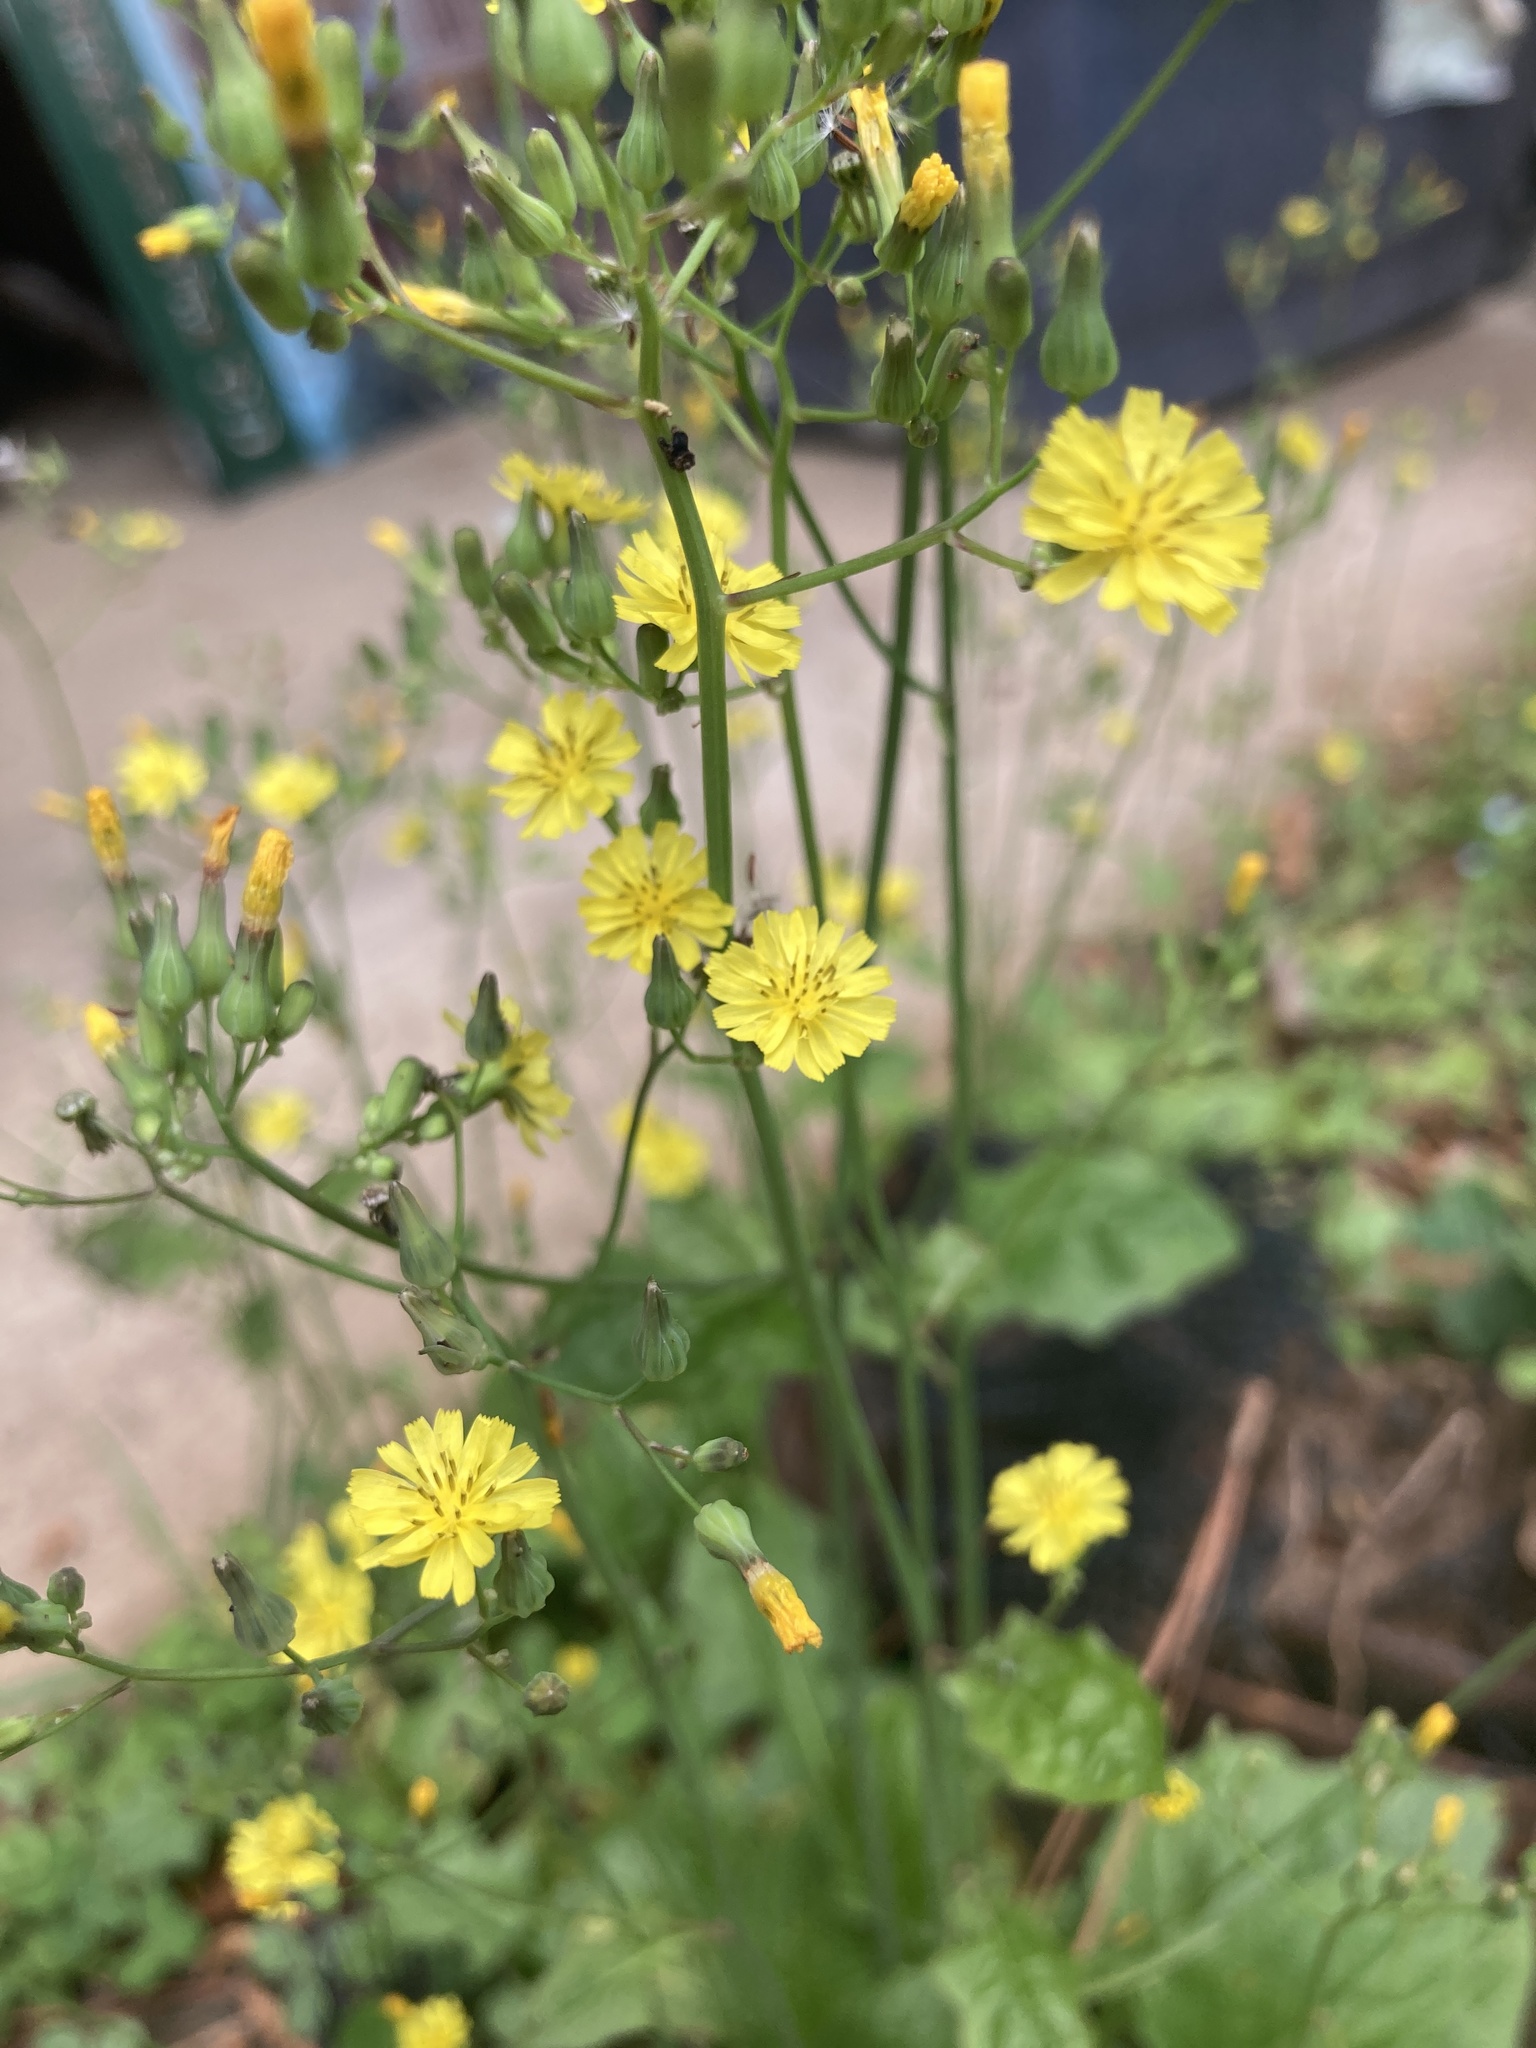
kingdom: Plantae
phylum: Tracheophyta
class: Magnoliopsida
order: Asterales
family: Asteraceae
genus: Youngia
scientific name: Youngia japonica
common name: Oriental false hawksbeard
